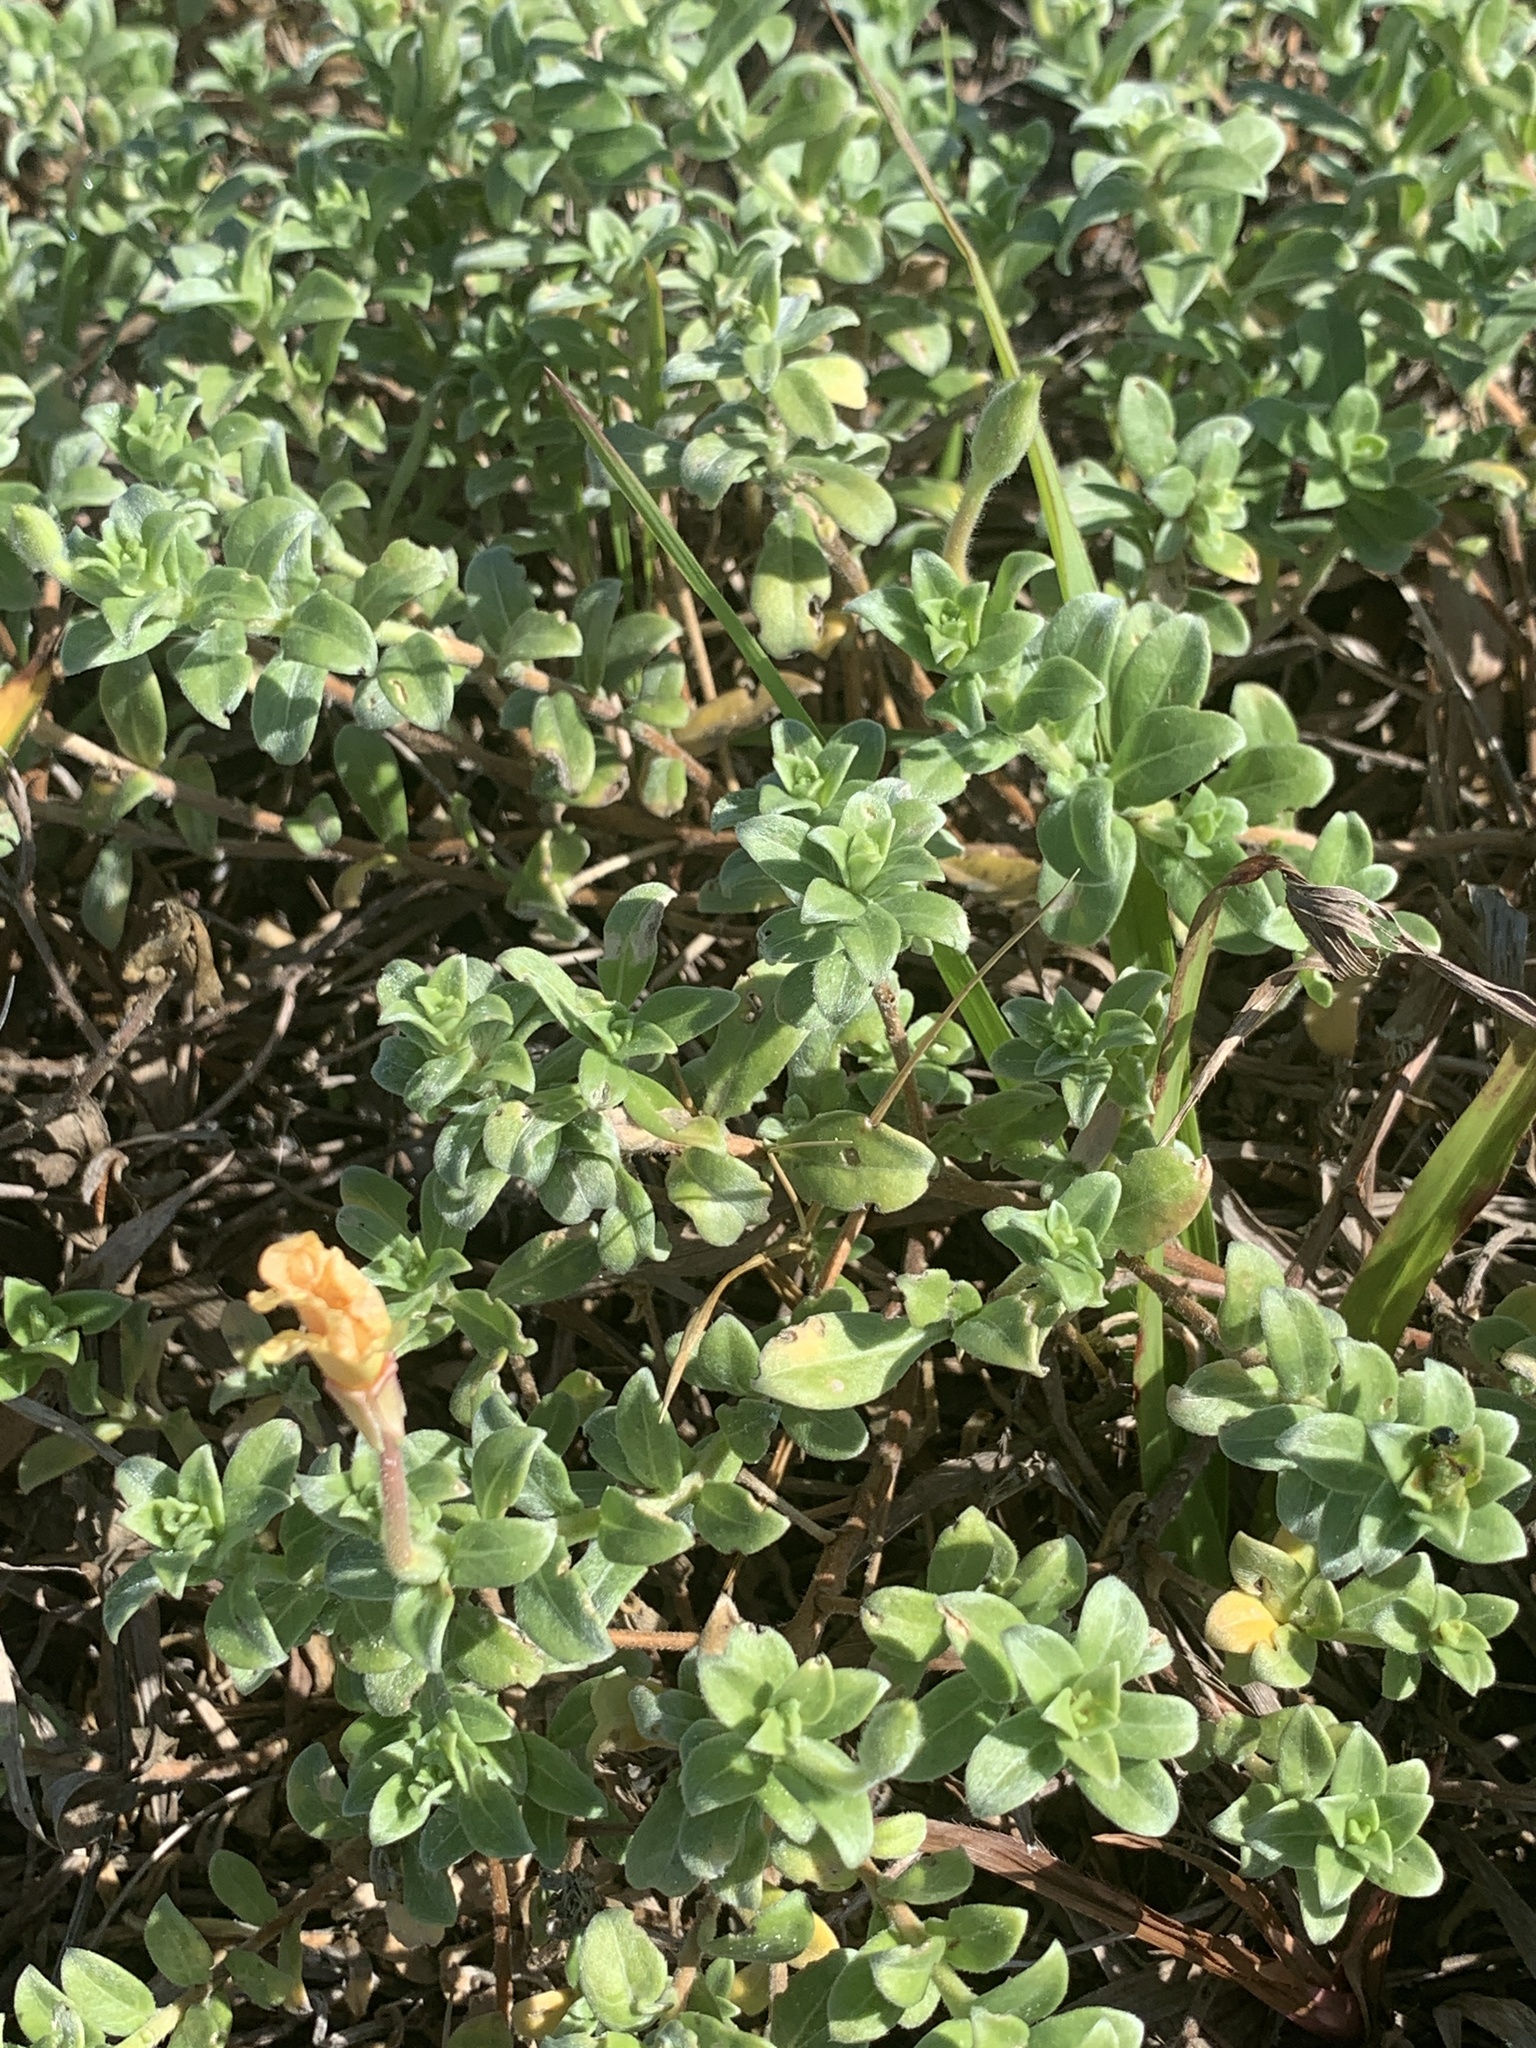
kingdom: Plantae
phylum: Tracheophyta
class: Magnoliopsida
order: Myrtales
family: Onagraceae
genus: Oenothera
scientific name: Oenothera humifusa
